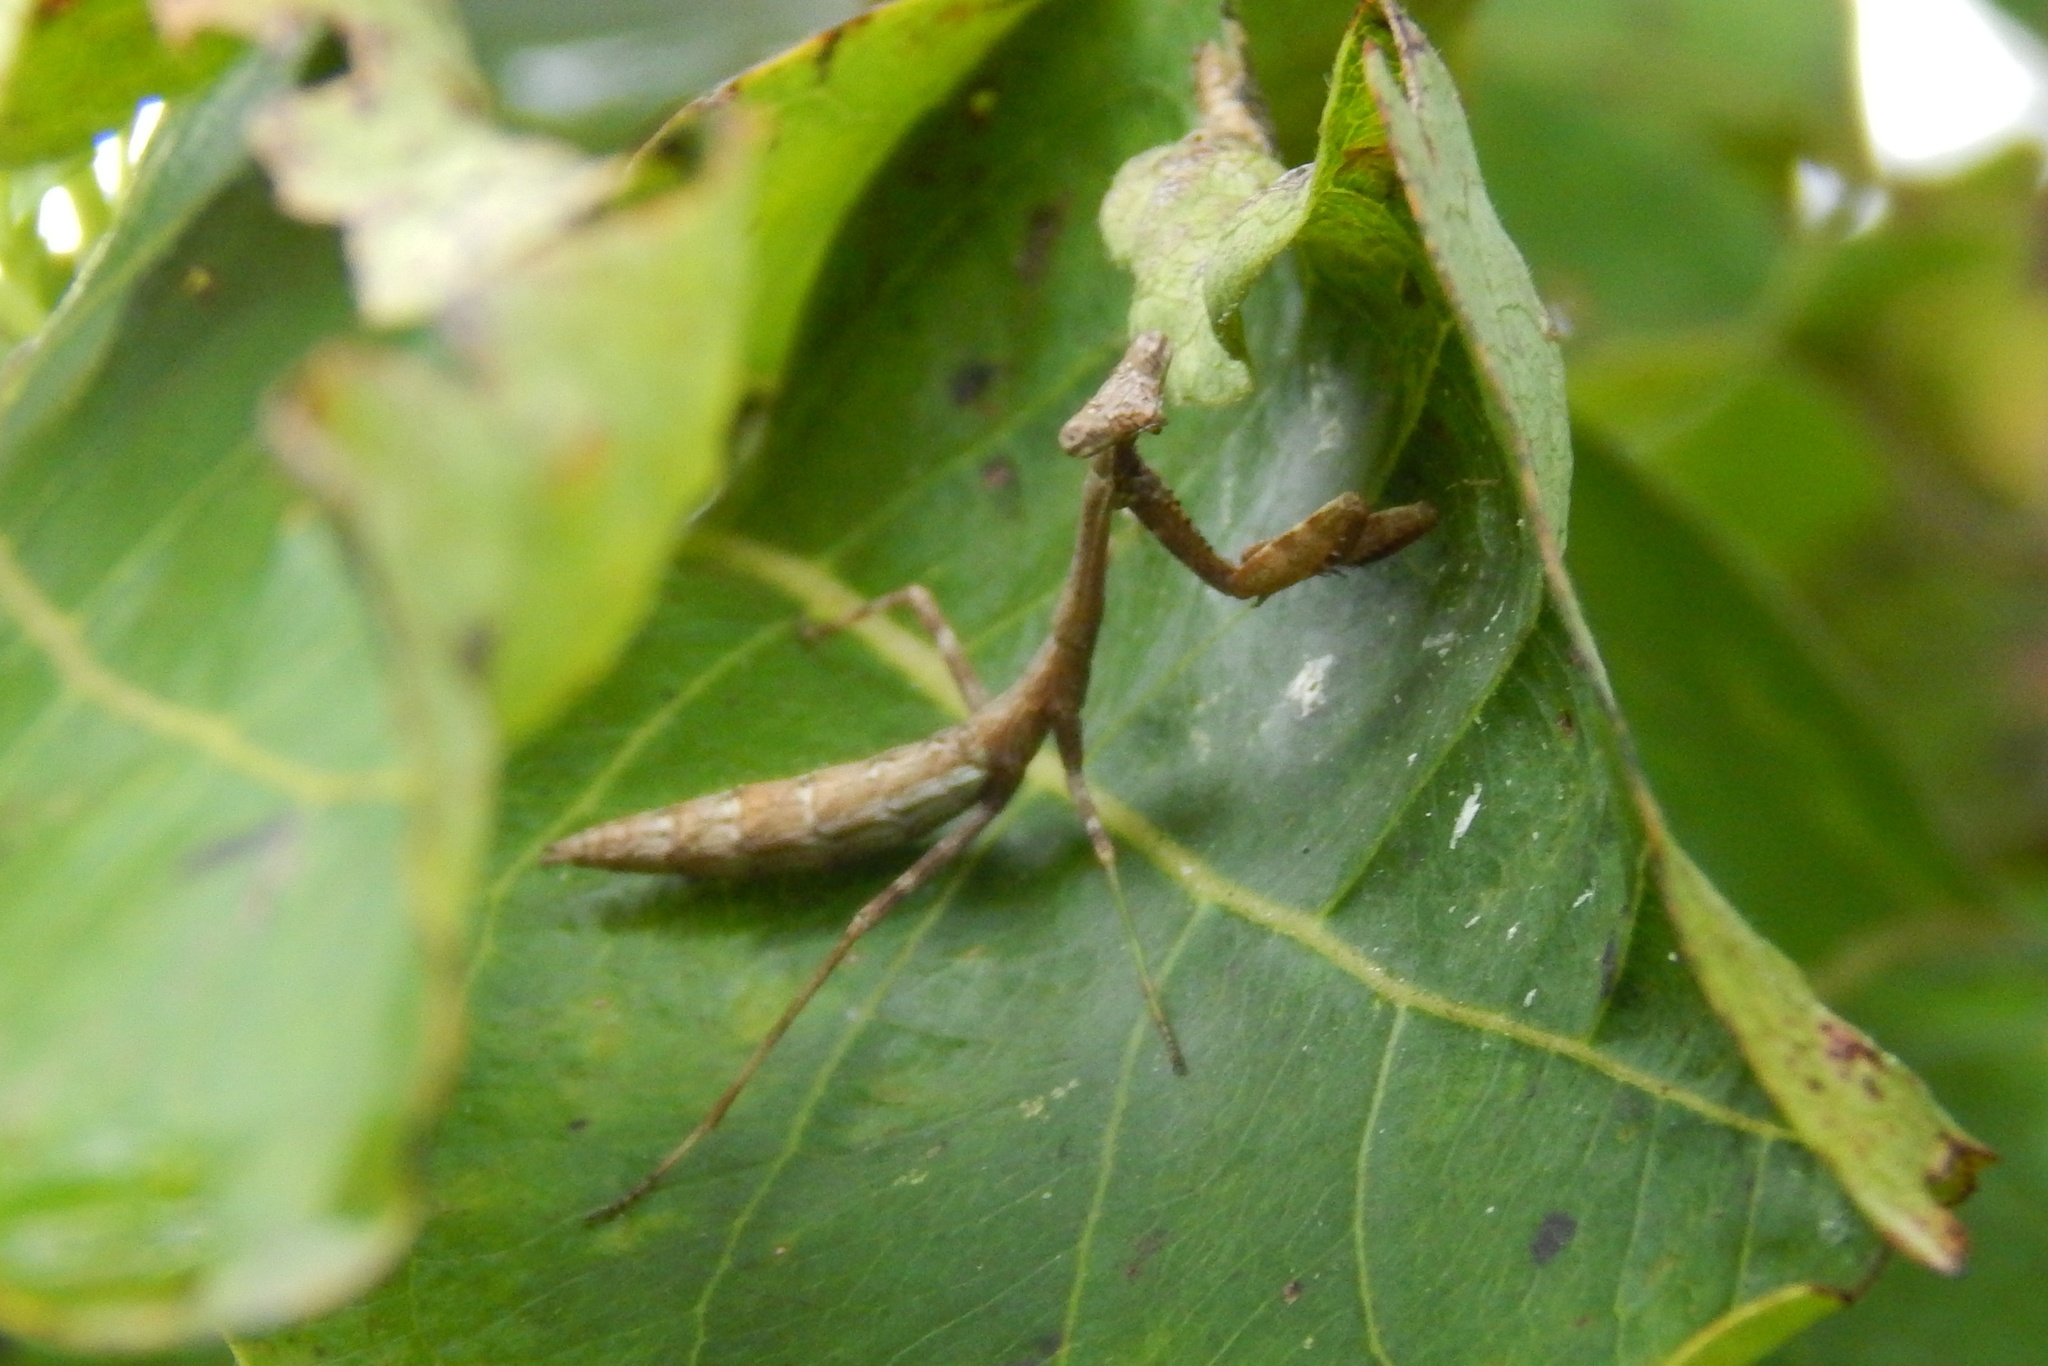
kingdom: Animalia
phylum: Arthropoda
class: Insecta
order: Mantodea
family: Mantidae
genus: Stagmomantis
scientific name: Stagmomantis carolina
